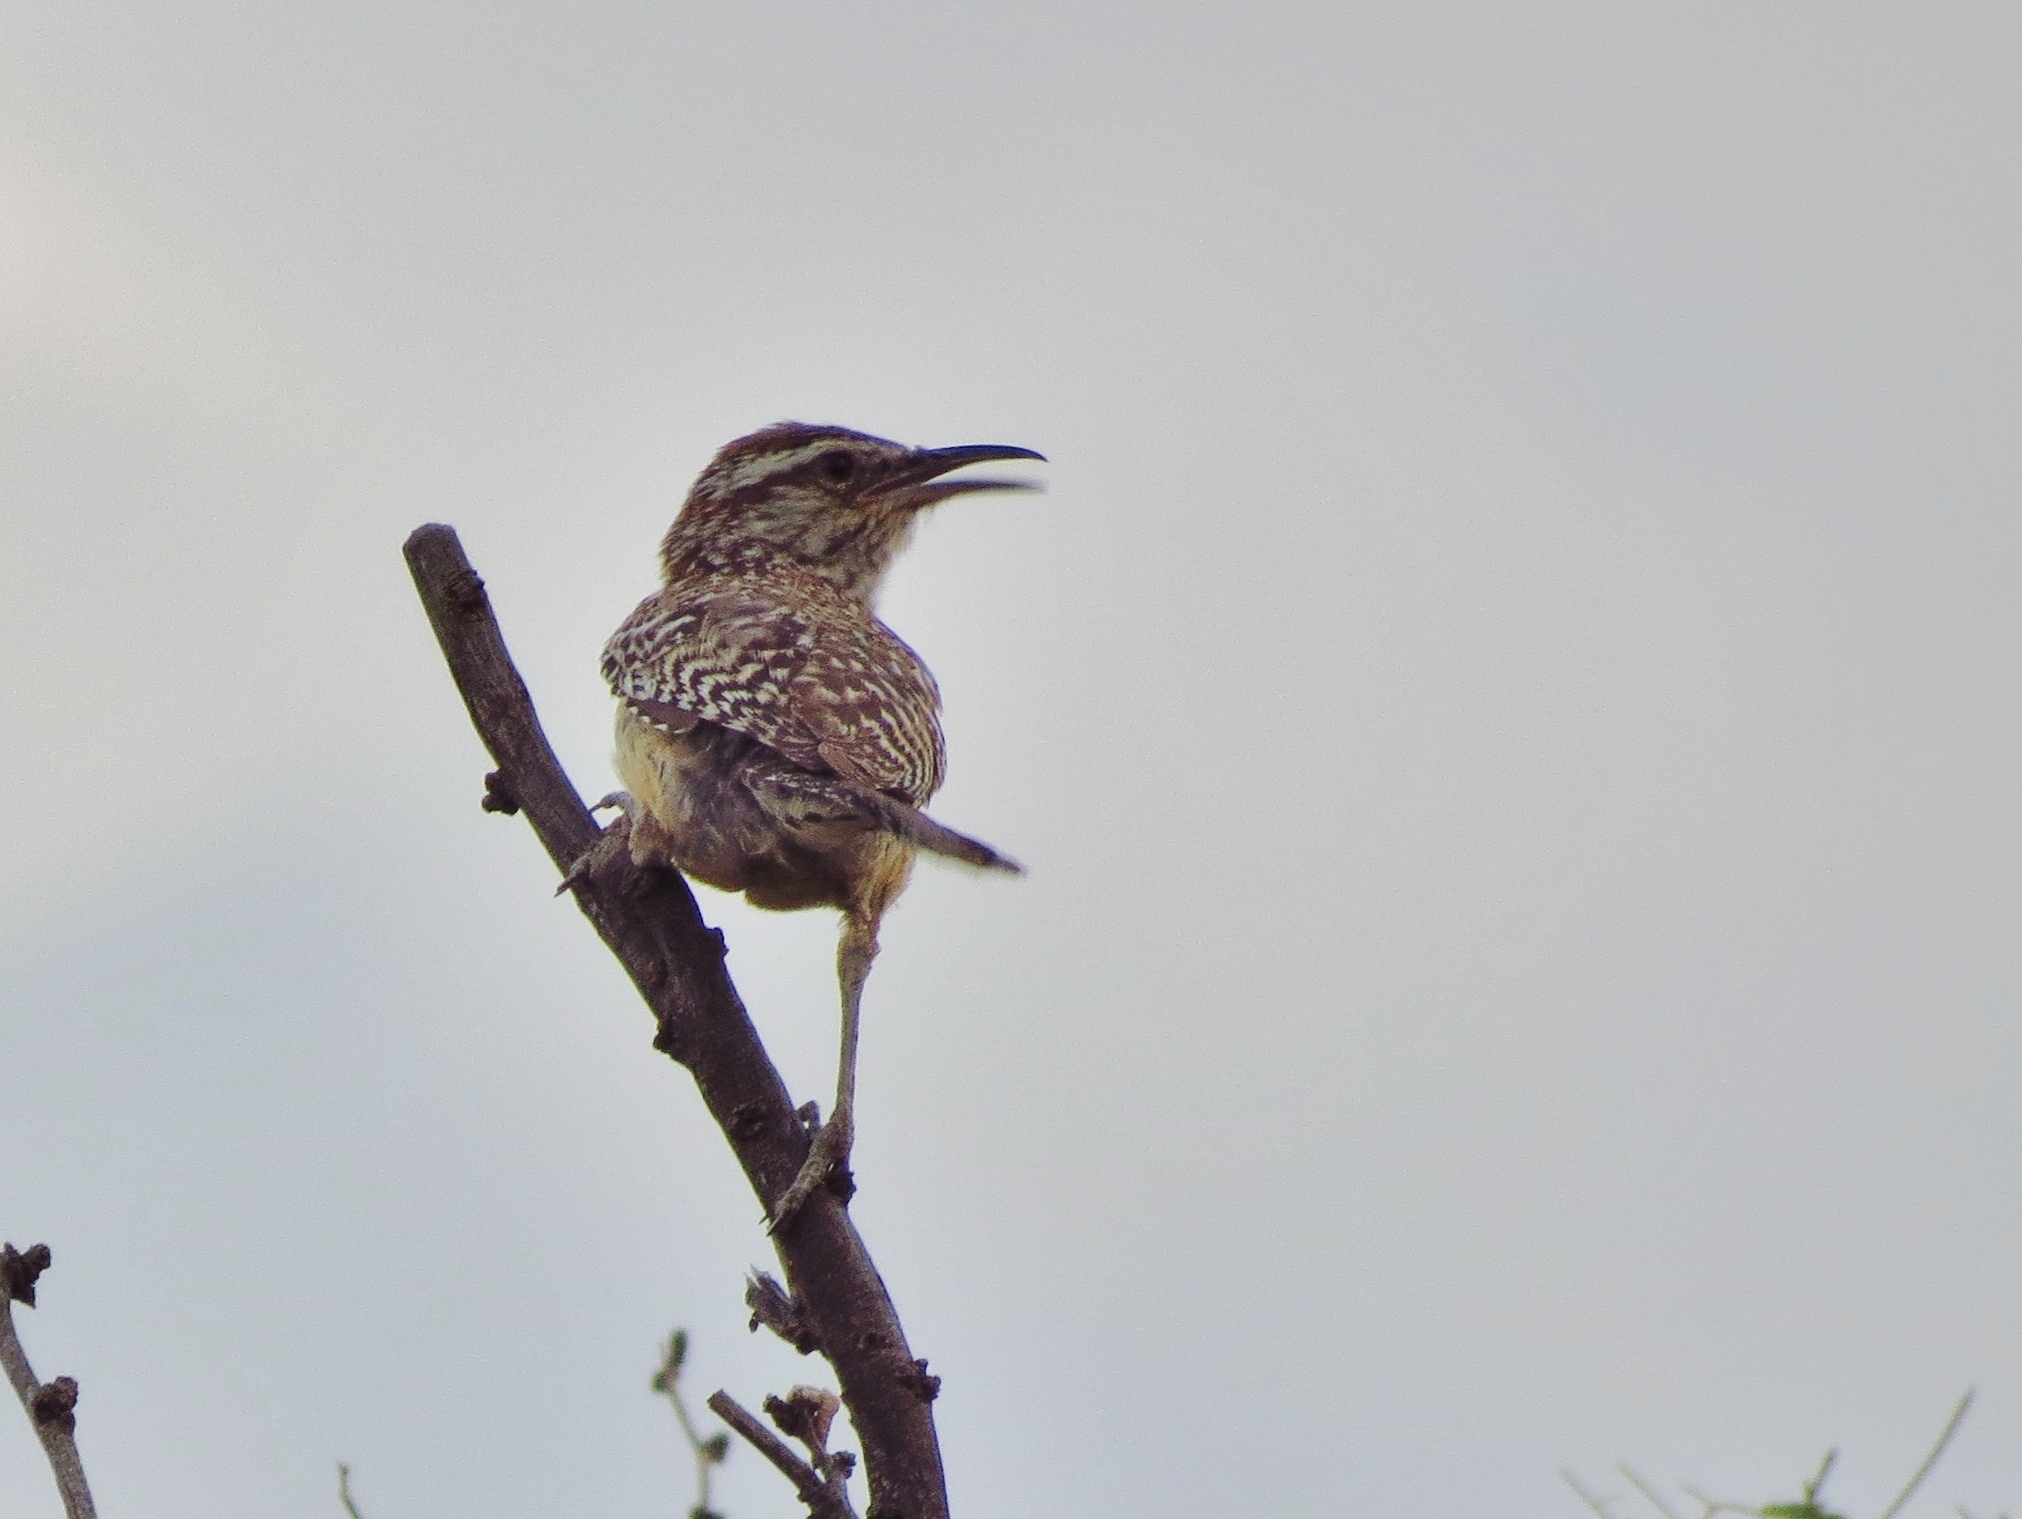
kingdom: Animalia
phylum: Chordata
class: Aves
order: Passeriformes
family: Troglodytidae
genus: Campylorhynchus
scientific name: Campylorhynchus brunneicapillus
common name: Cactus wren
